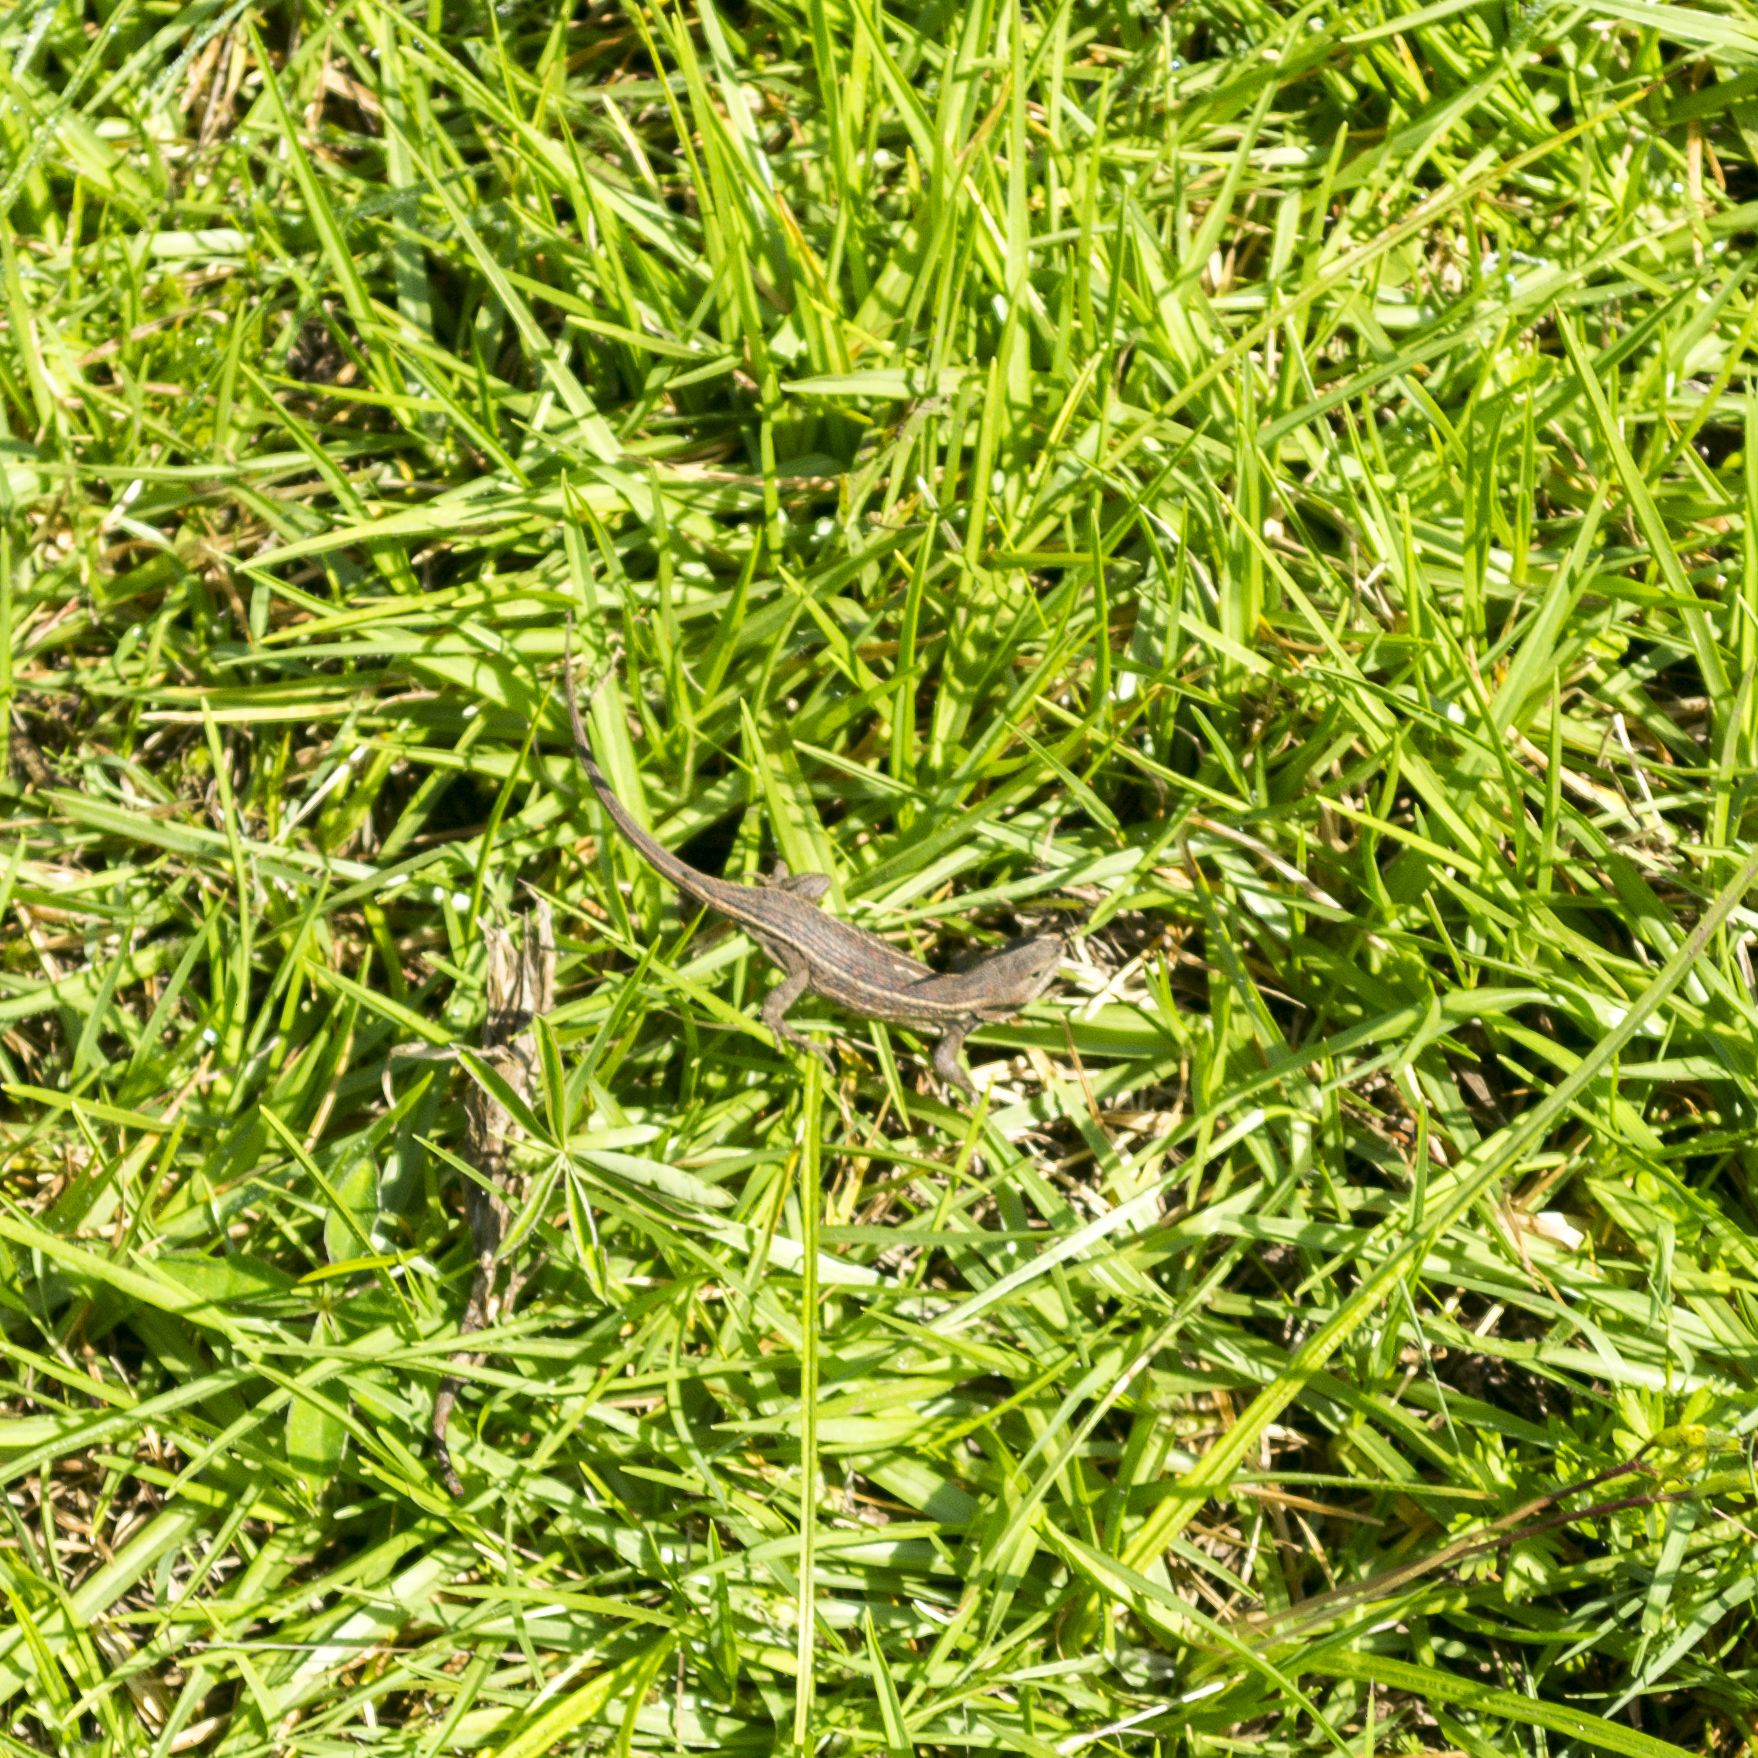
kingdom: Animalia
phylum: Chordata
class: Squamata
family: Phrynosomatidae
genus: Sceloporus
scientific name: Sceloporus subniger
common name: Plateau bunchgrass lizard
